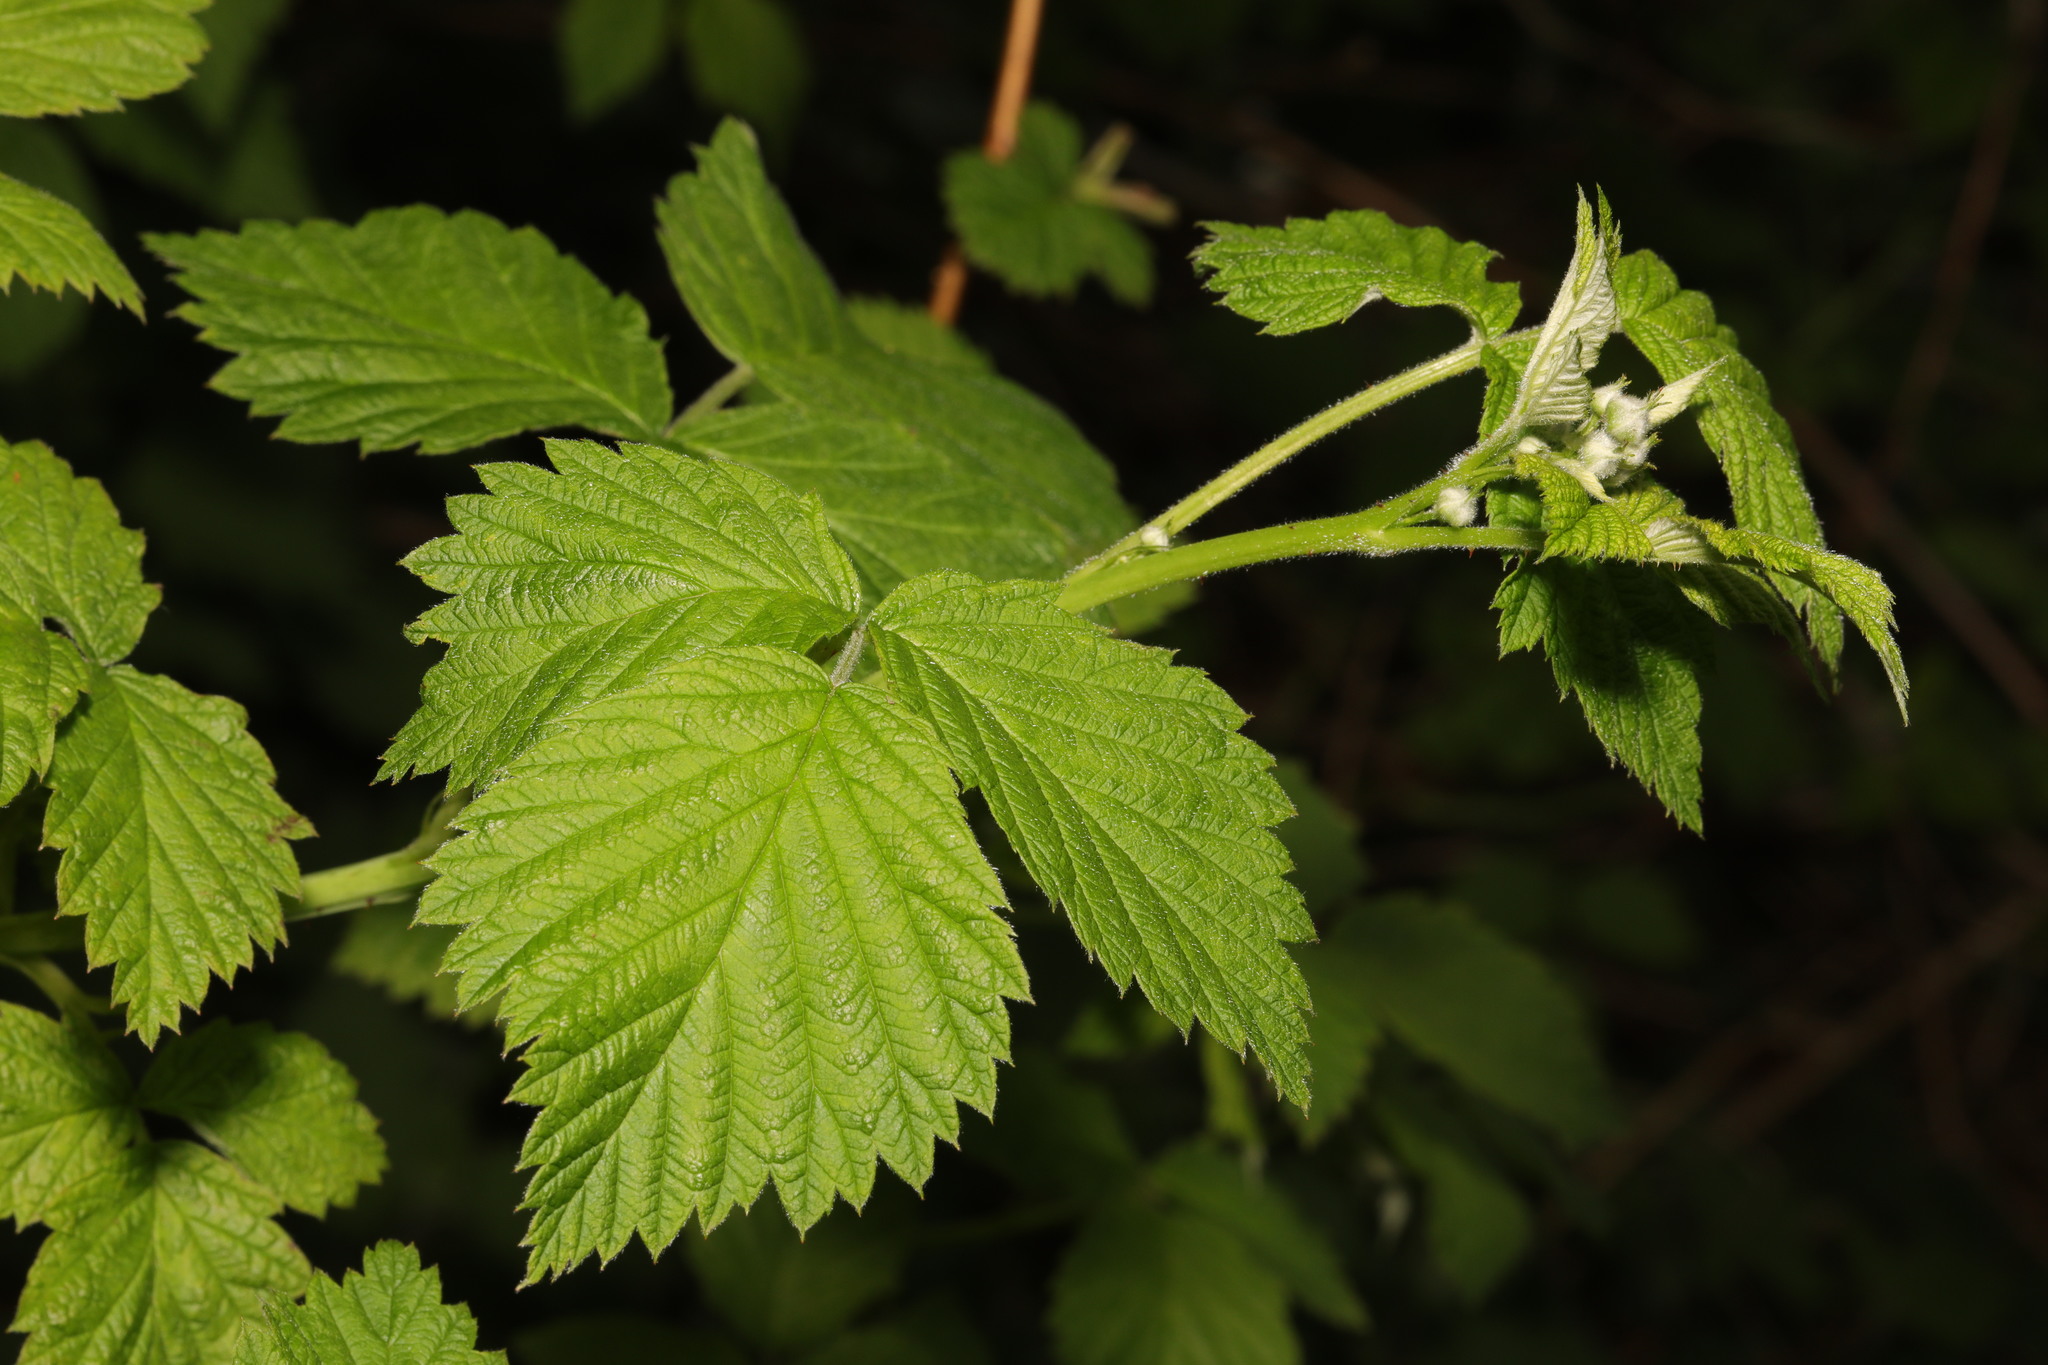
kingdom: Plantae
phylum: Tracheophyta
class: Magnoliopsida
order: Rosales
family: Rosaceae
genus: Rubus
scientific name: Rubus idaeus
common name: Raspberry
